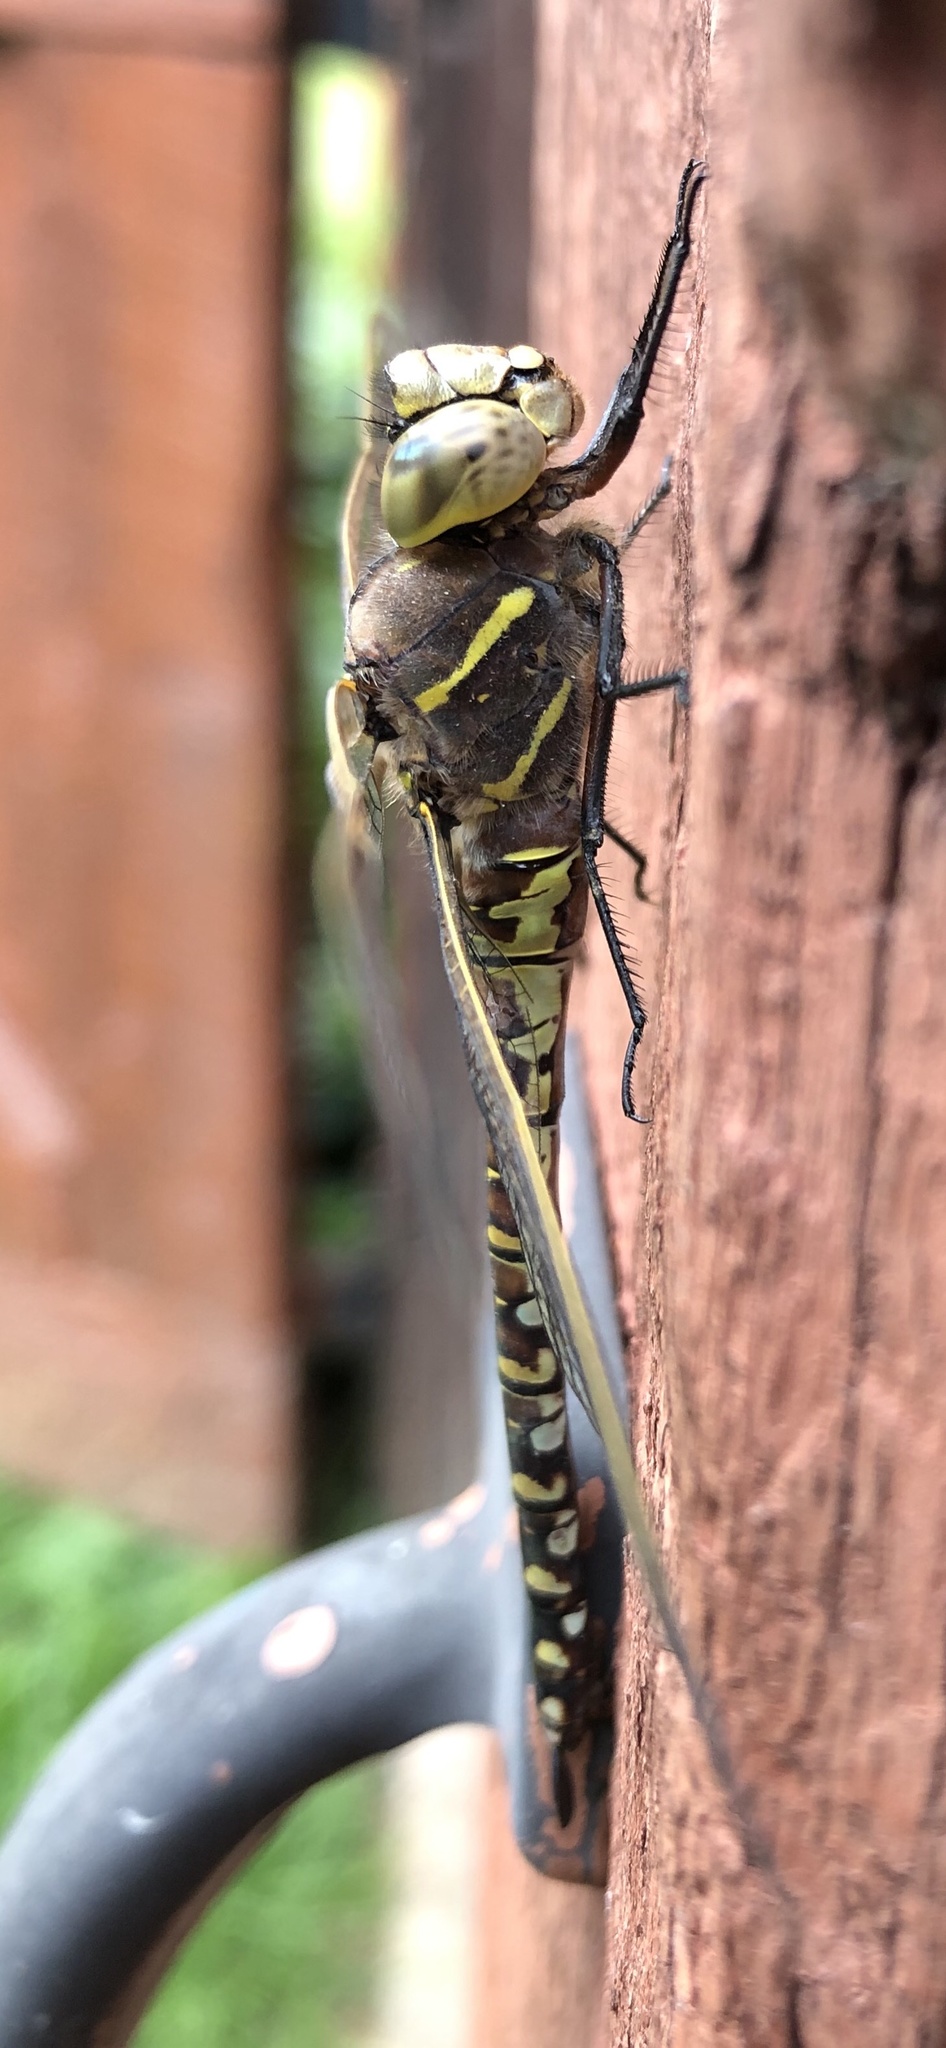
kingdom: Animalia
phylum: Arthropoda
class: Insecta
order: Odonata
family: Aeshnidae
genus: Aeshna
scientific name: Aeshna interrupta
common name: Variable darner
